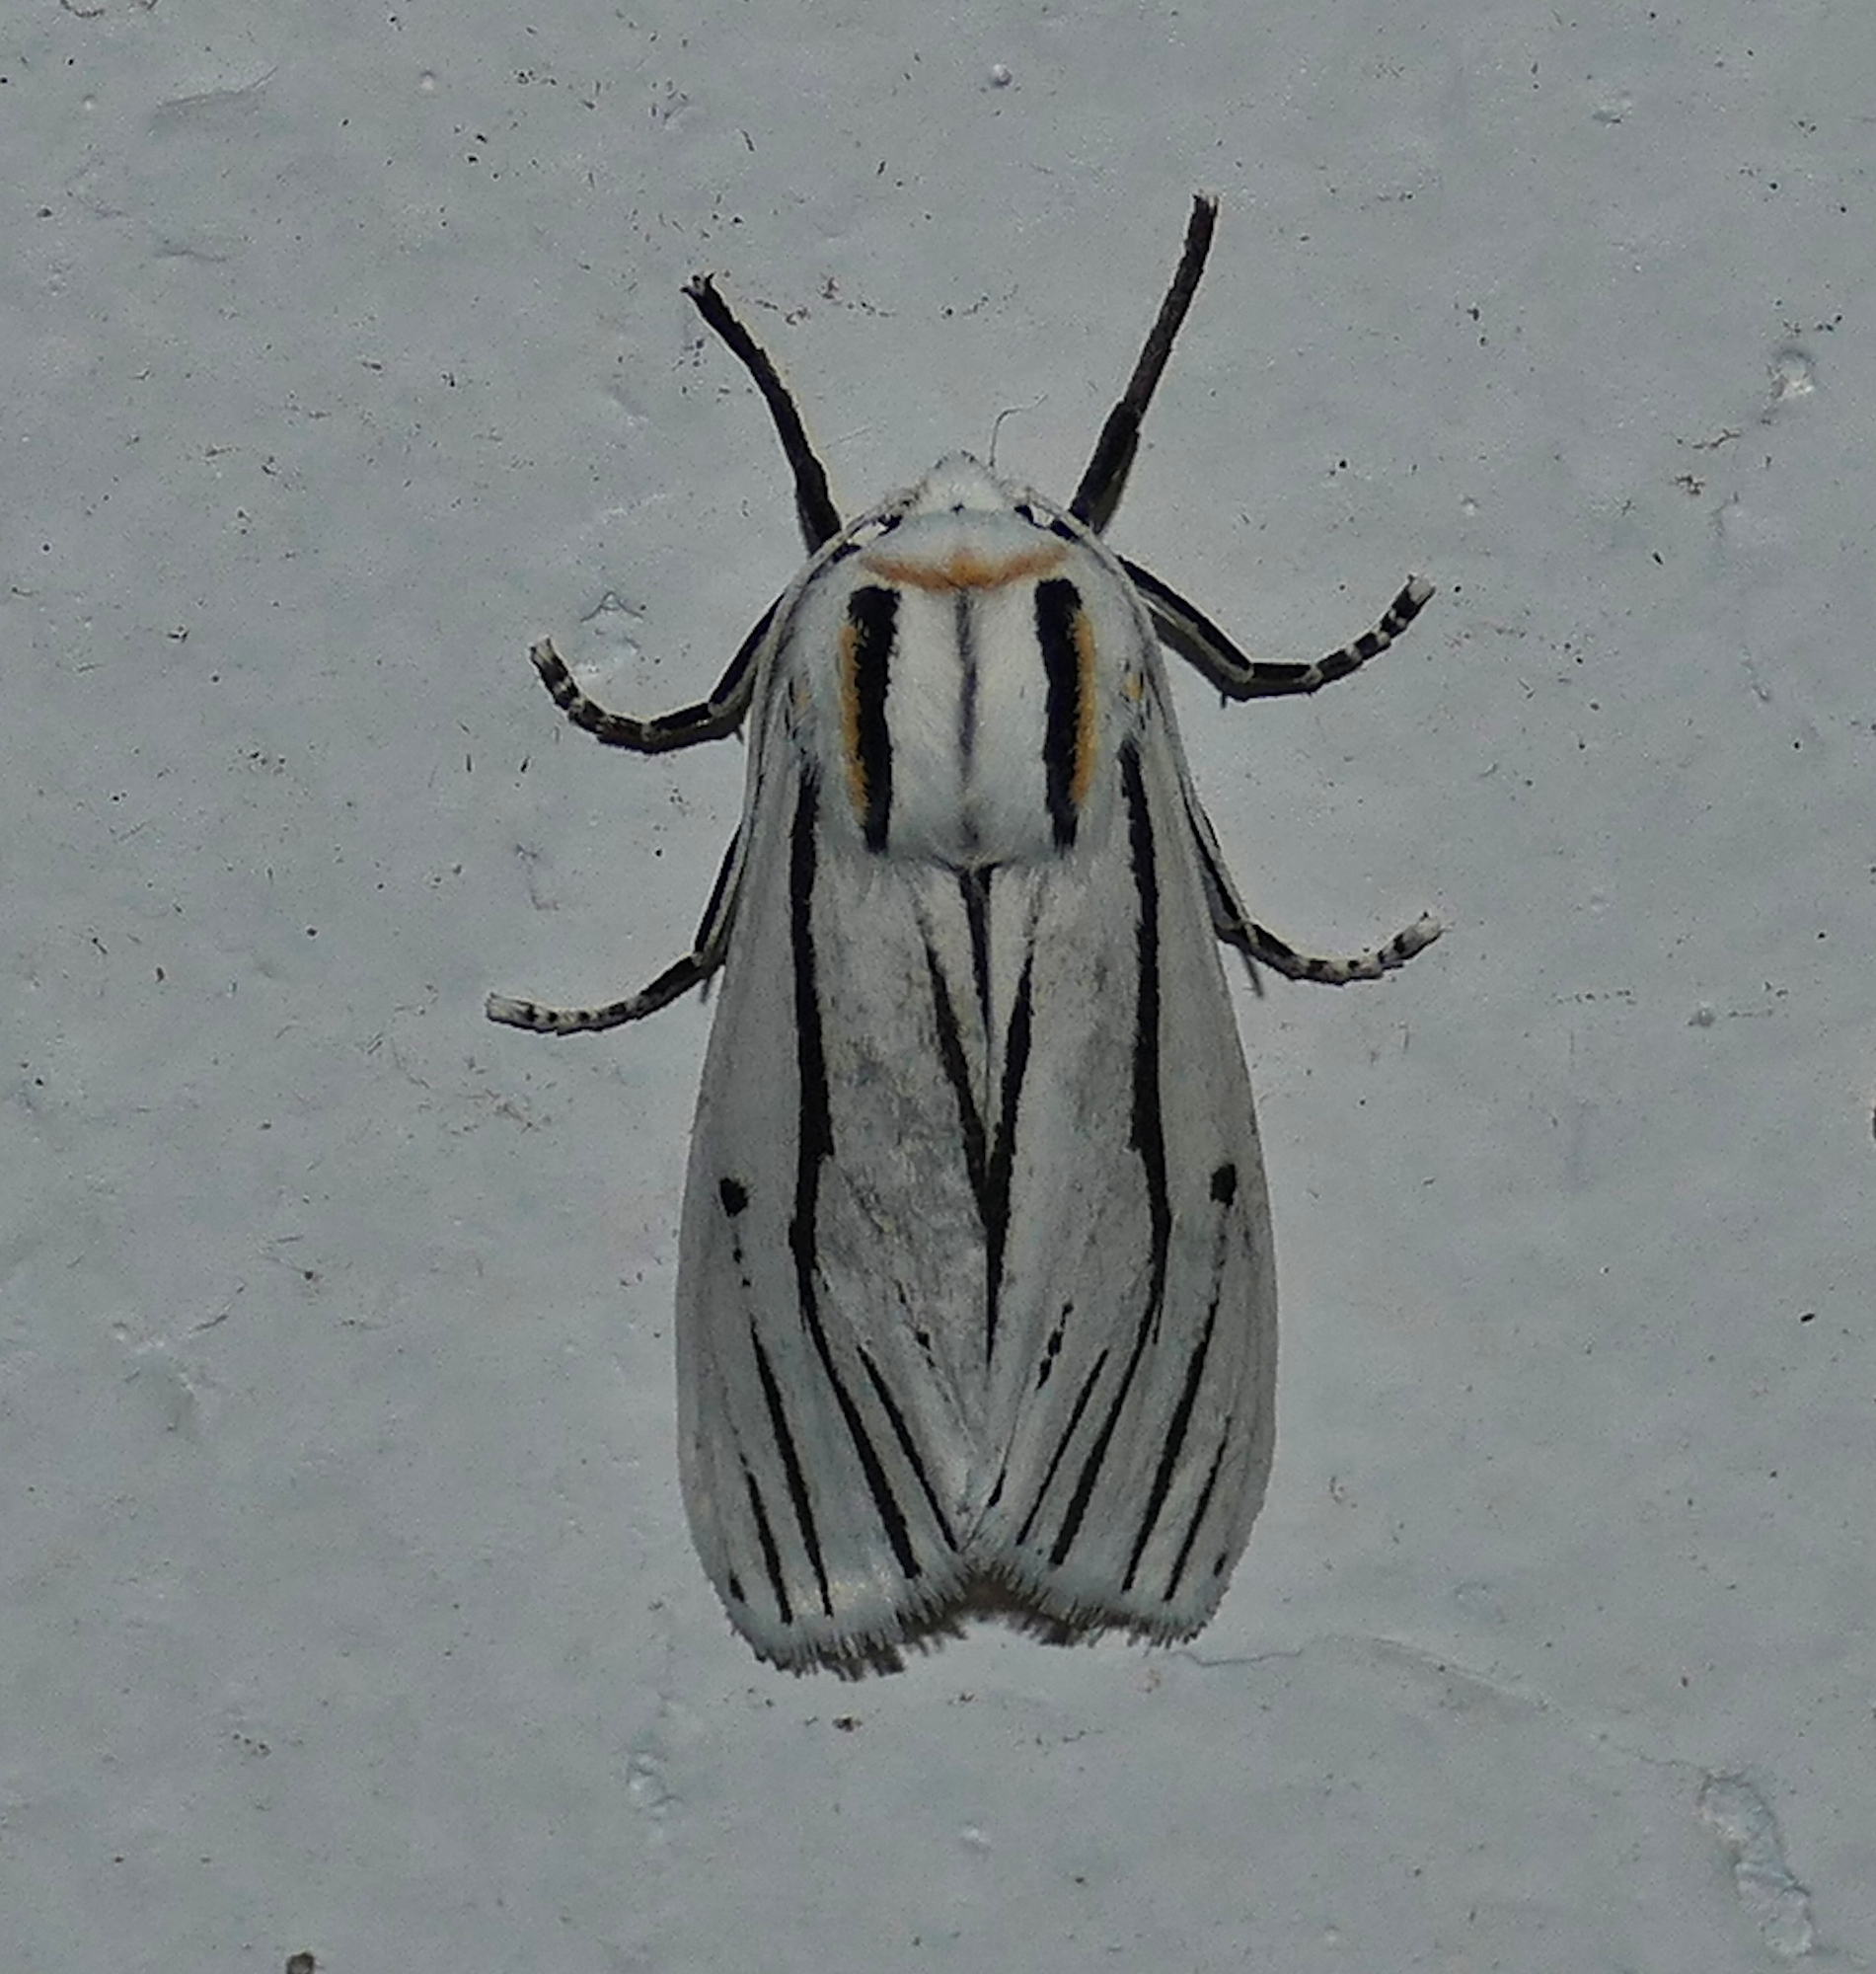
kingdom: Animalia
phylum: Arthropoda
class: Insecta
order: Lepidoptera
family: Erebidae
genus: Ectypia
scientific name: Ectypia clio
